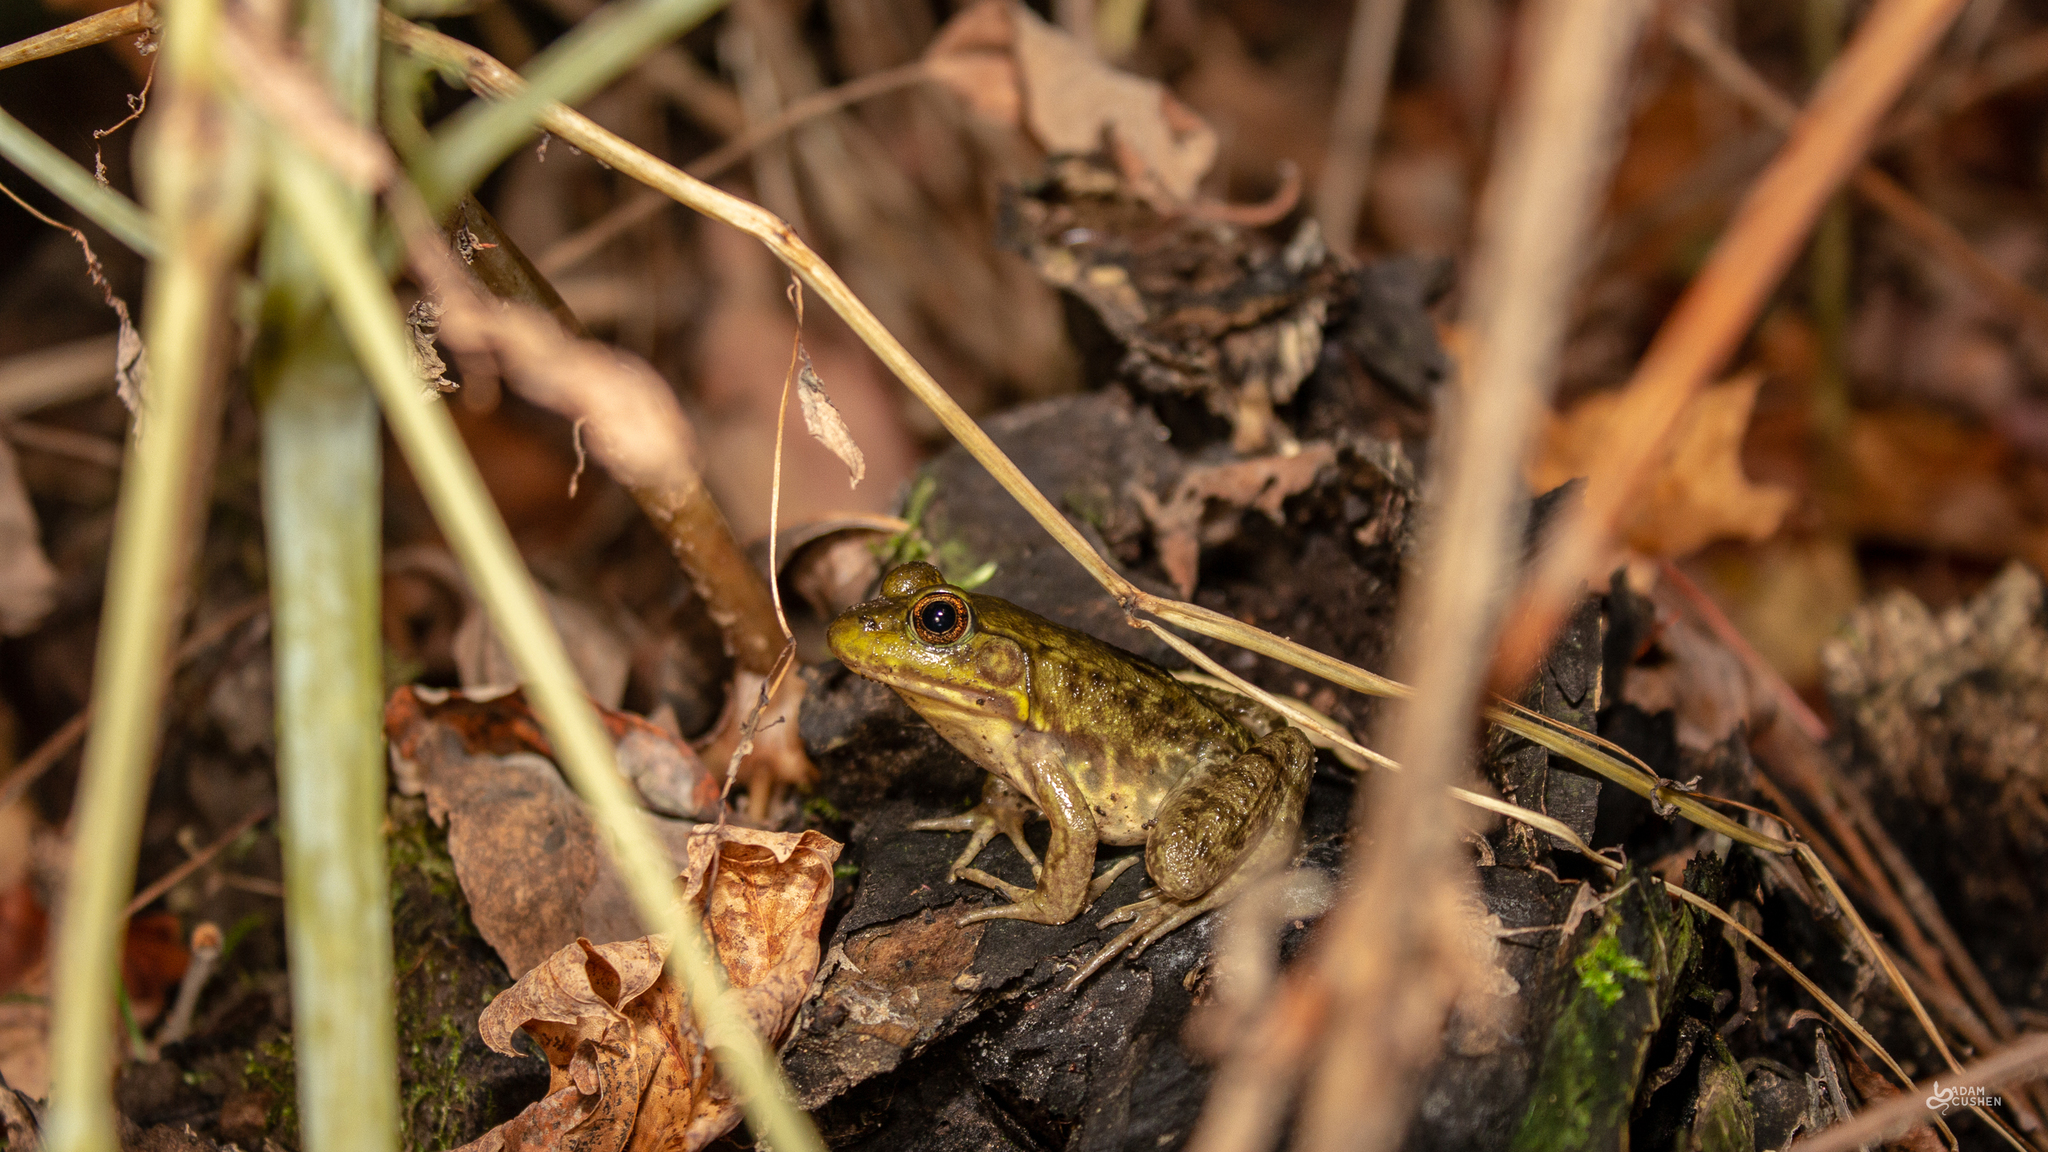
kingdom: Animalia
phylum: Chordata
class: Amphibia
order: Anura
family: Ranidae
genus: Lithobates
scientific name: Lithobates clamitans
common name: Green frog
